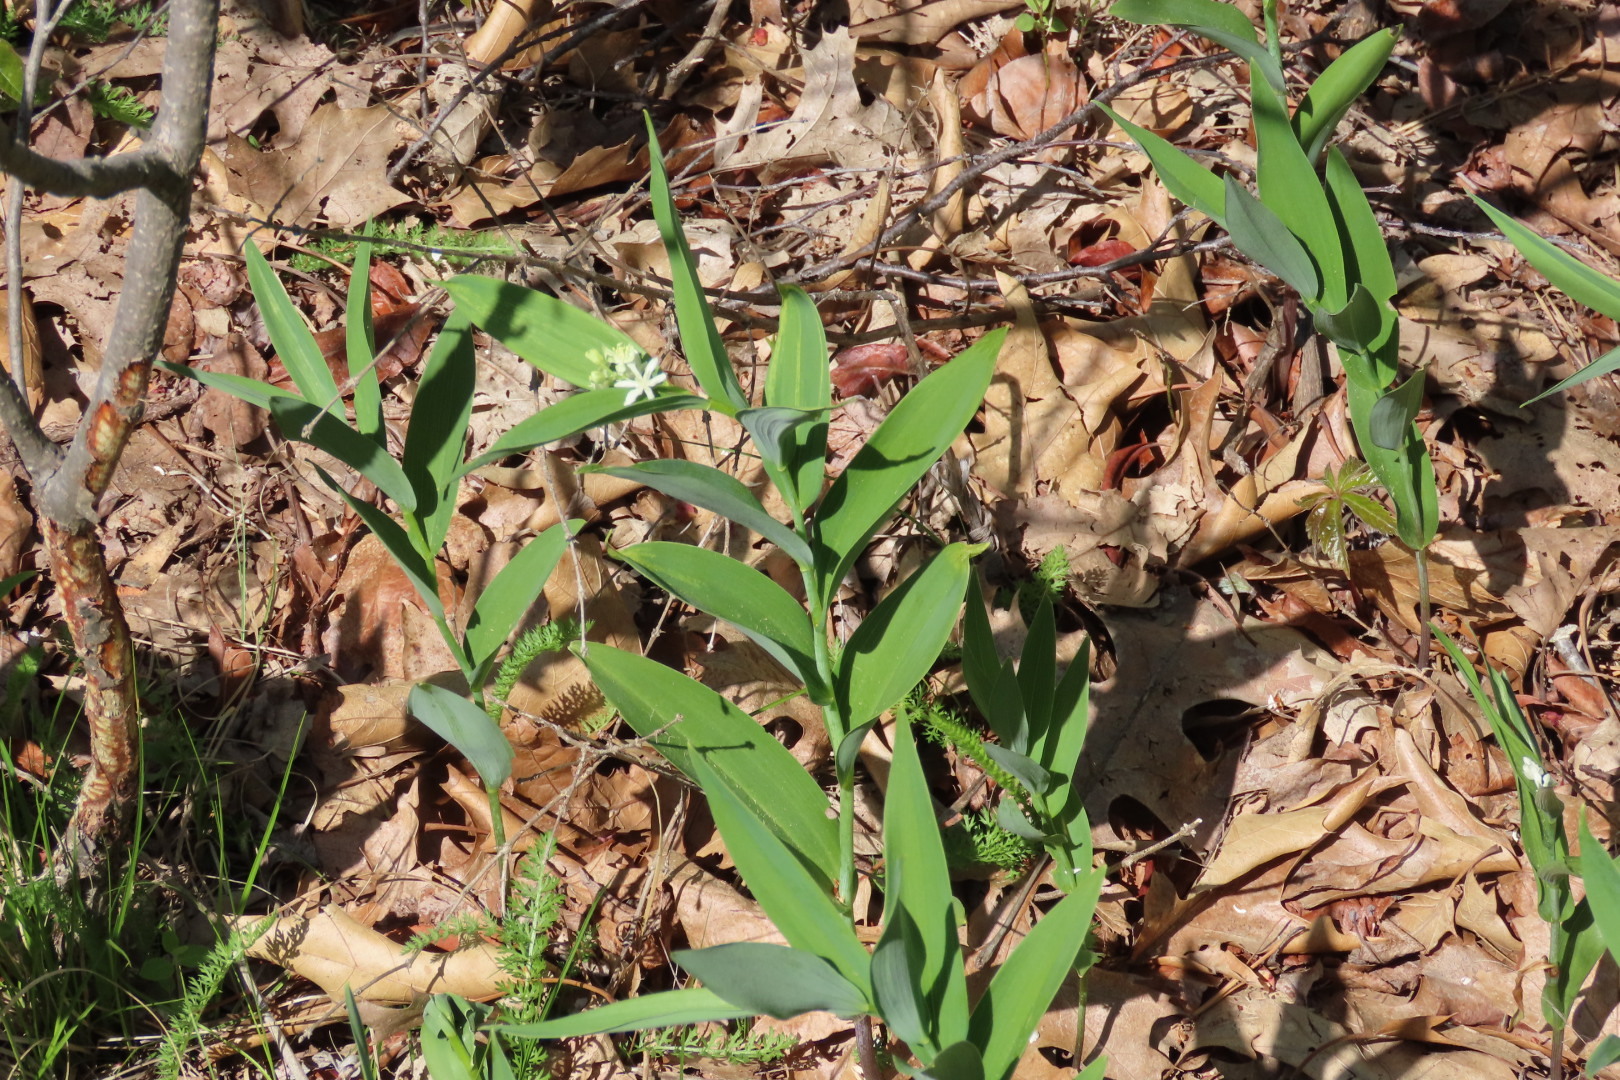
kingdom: Plantae
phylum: Tracheophyta
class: Liliopsida
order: Asparagales
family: Asparagaceae
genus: Maianthemum
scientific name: Maianthemum stellatum
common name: Little false solomon's seal
